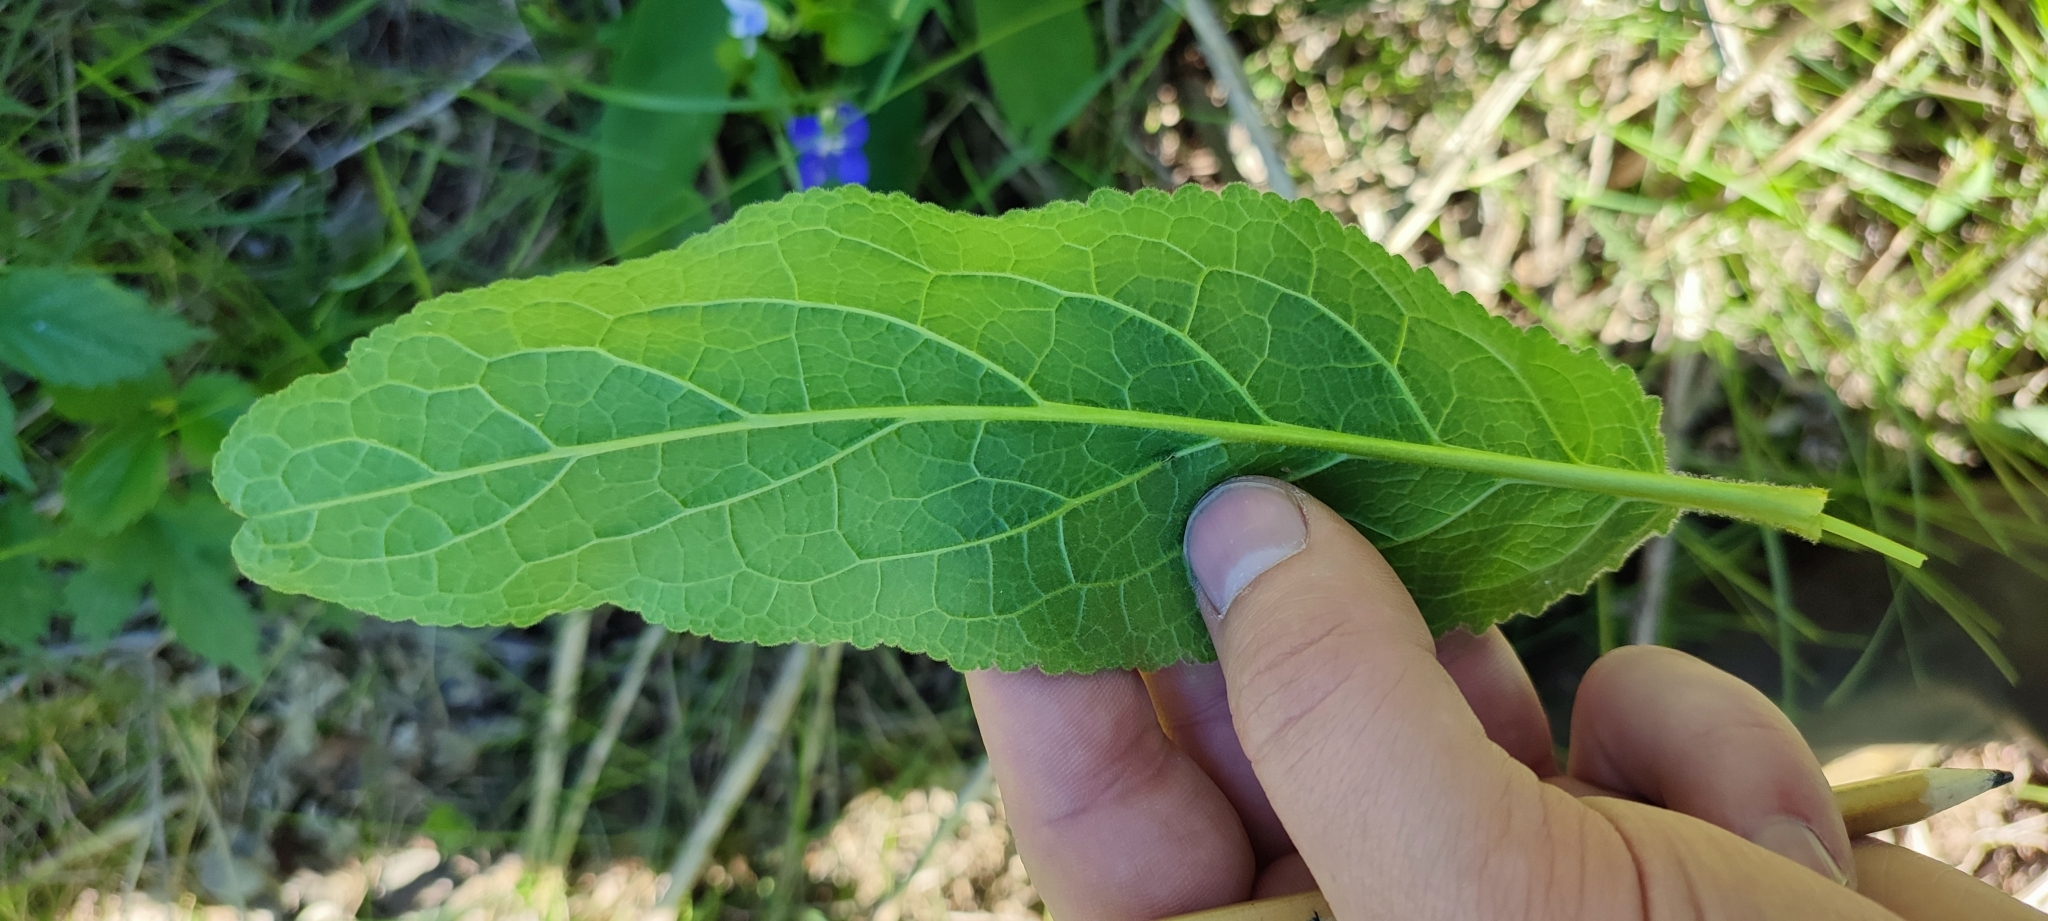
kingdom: Plantae
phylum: Tracheophyta
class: Magnoliopsida
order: Asterales
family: Campanulaceae
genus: Campanula
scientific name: Campanula glomerata
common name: Clustered bellflower
